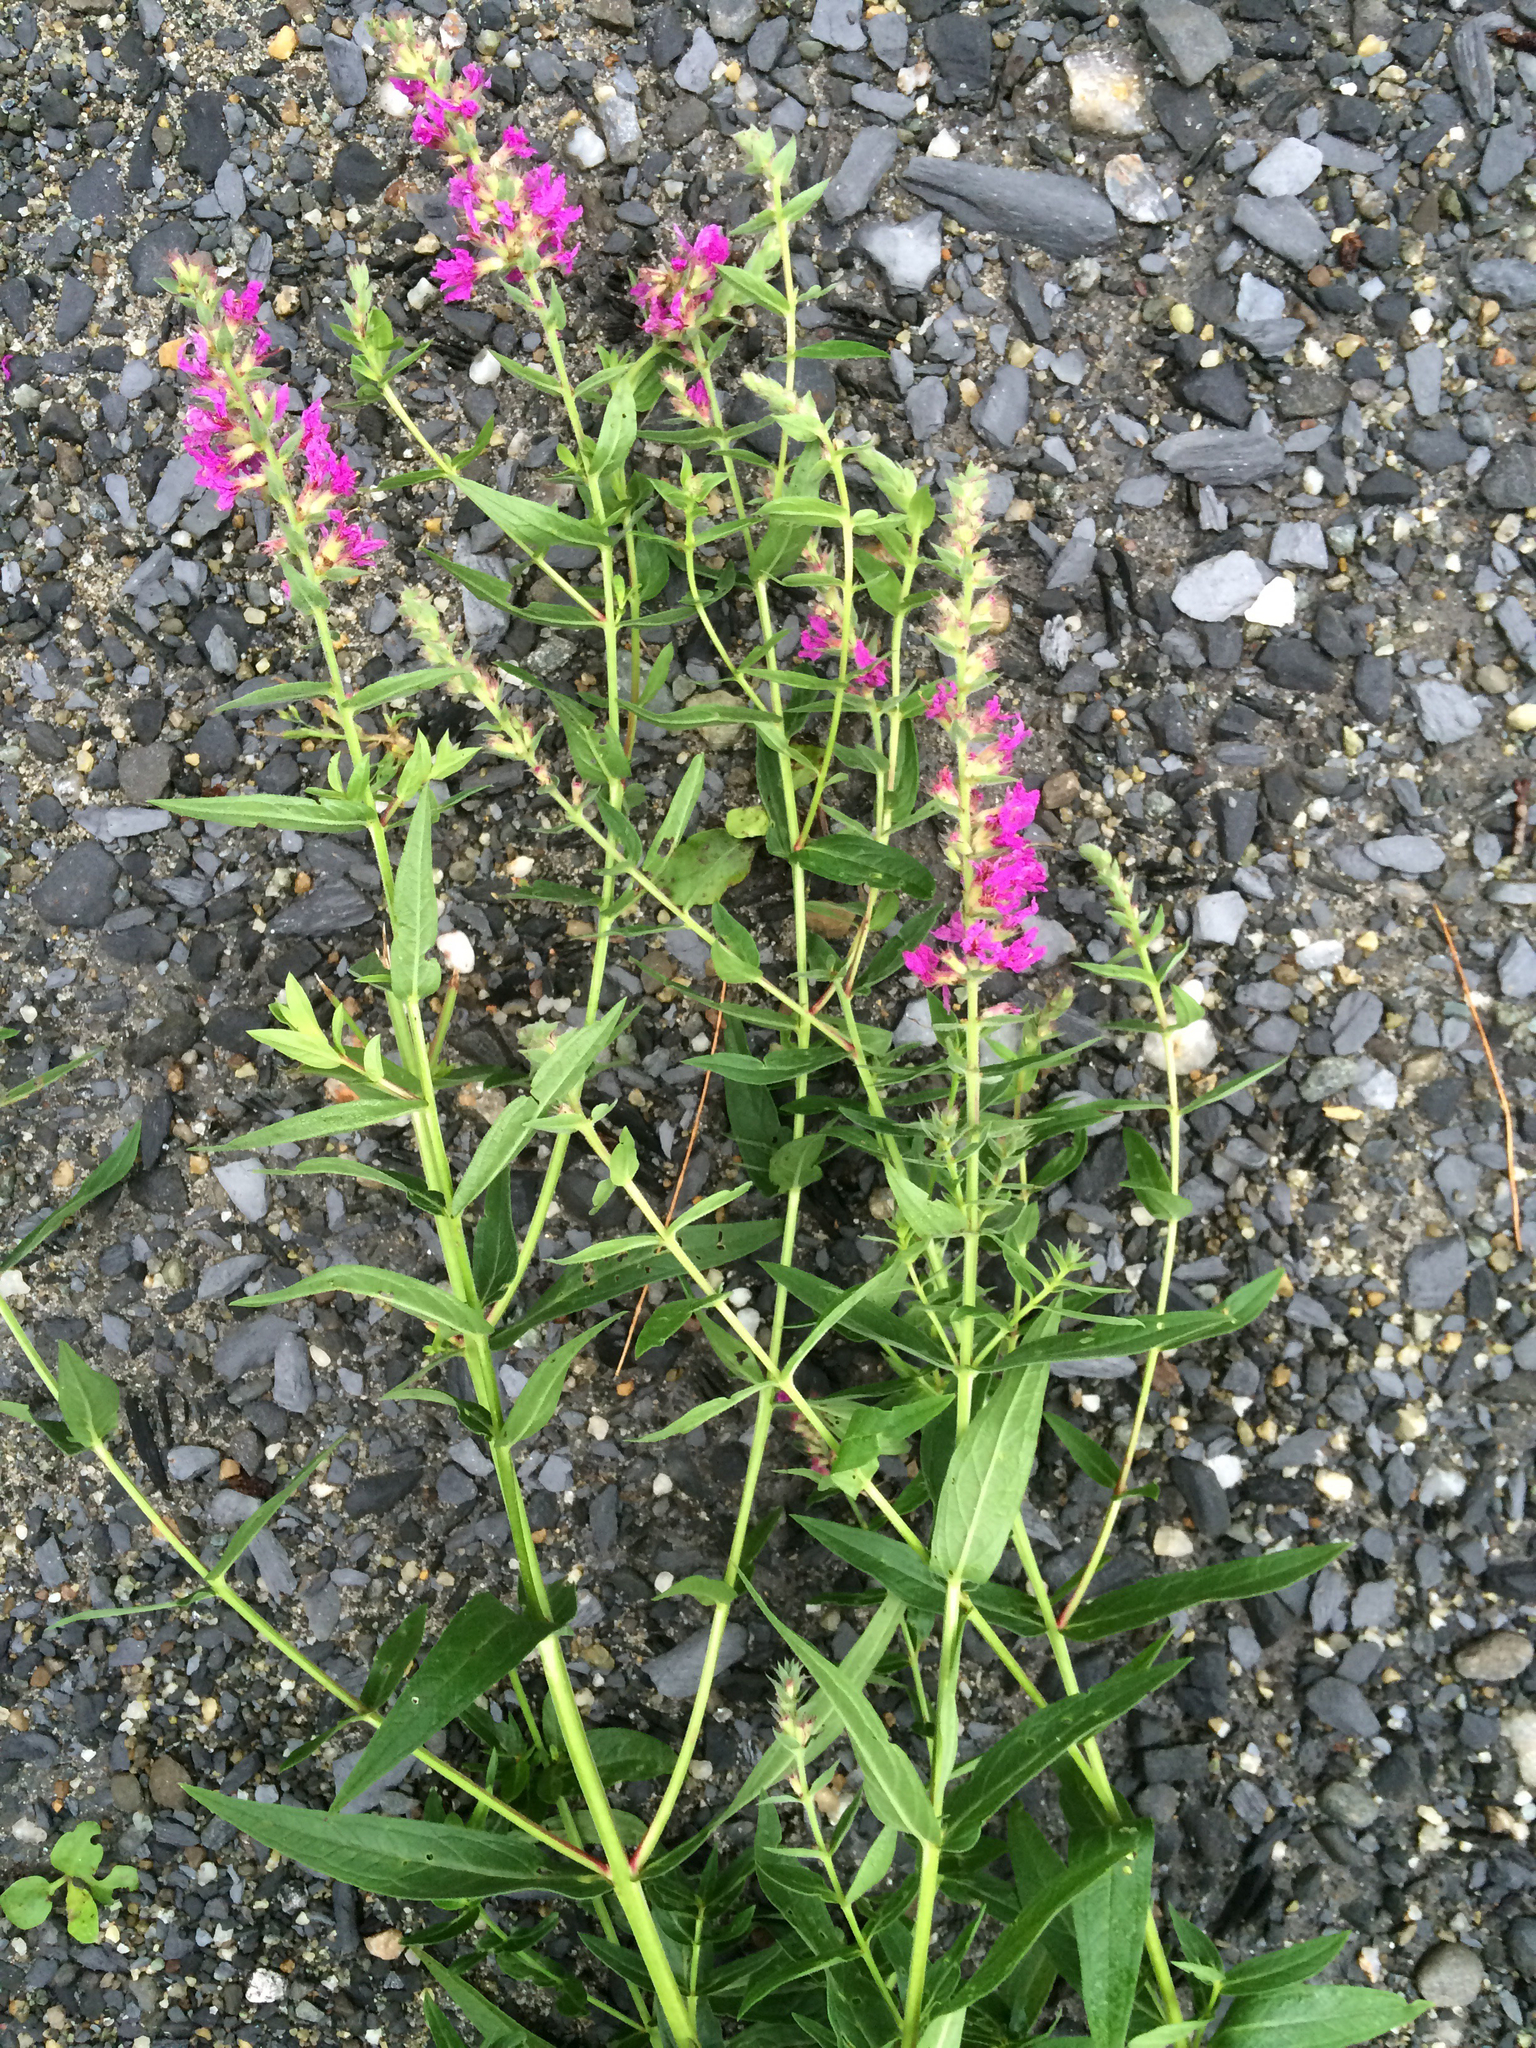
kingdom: Plantae
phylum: Tracheophyta
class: Magnoliopsida
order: Myrtales
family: Lythraceae
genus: Lythrum
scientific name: Lythrum salicaria
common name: Purple loosestrife
